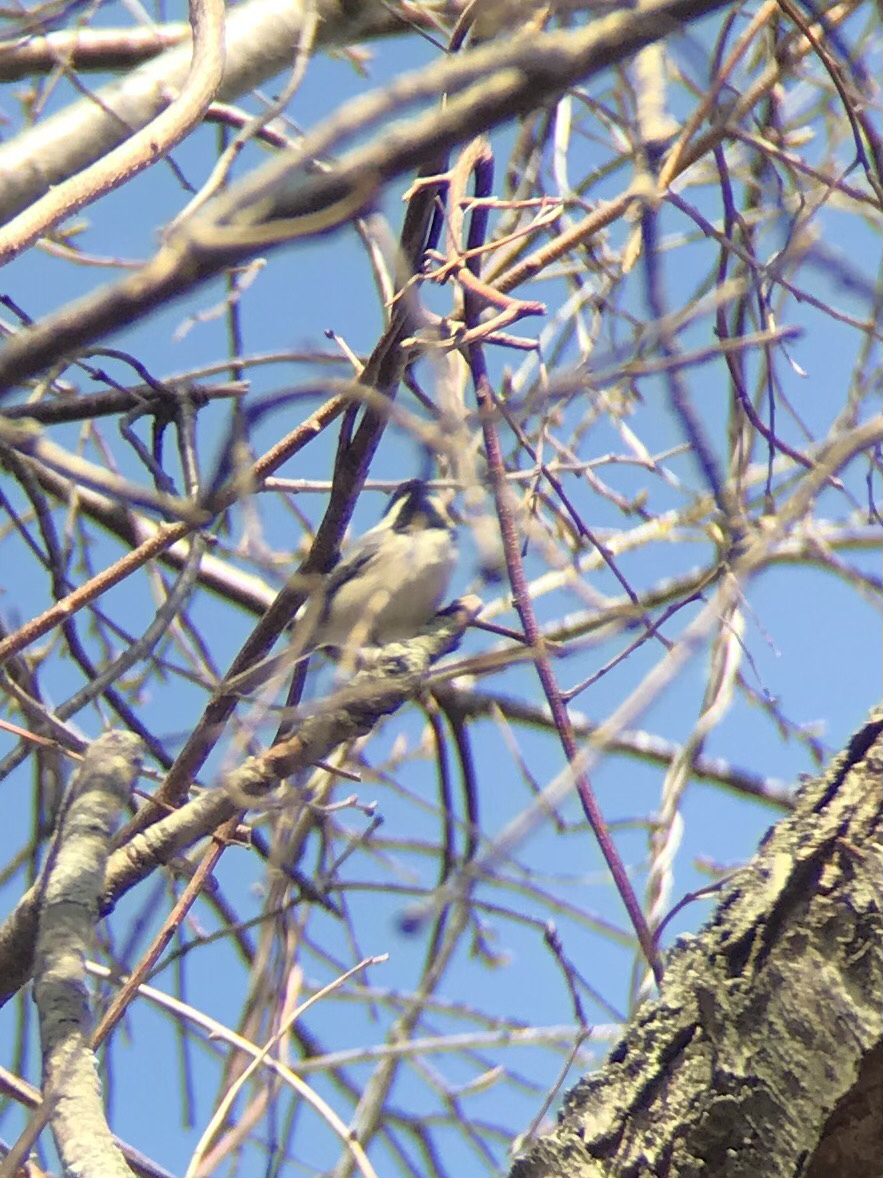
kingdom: Animalia
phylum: Chordata
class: Aves
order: Passeriformes
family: Paridae
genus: Poecile
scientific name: Poecile atricapillus
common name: Black-capped chickadee
